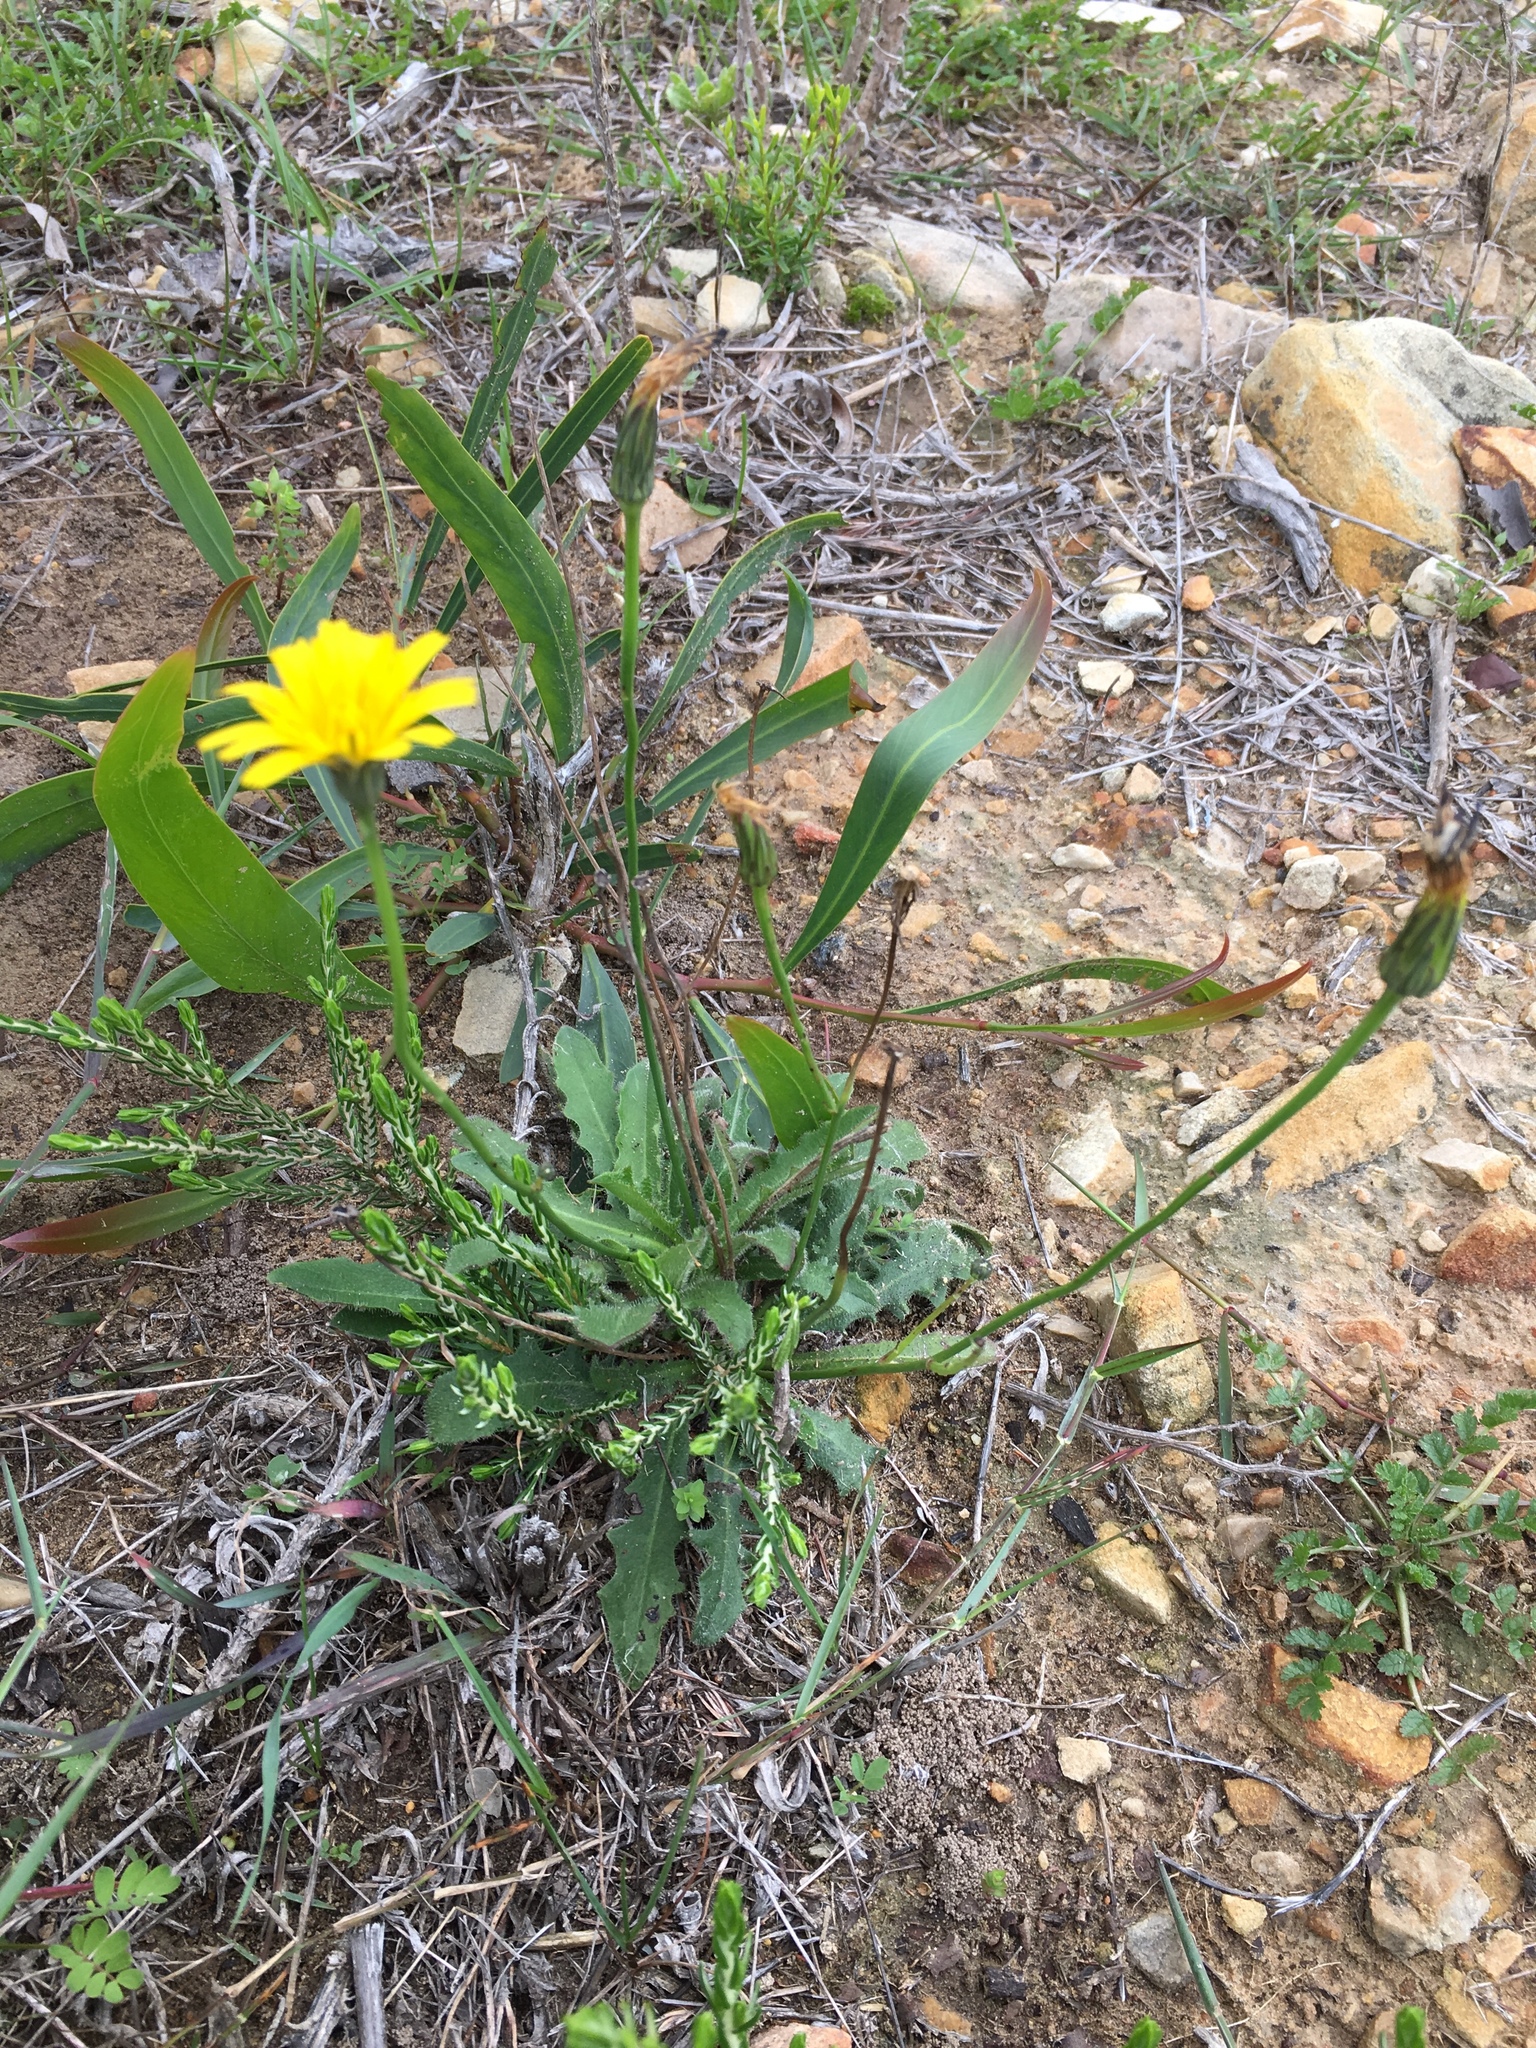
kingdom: Plantae
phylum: Tracheophyta
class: Magnoliopsida
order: Asterales
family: Asteraceae
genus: Hypochaeris
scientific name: Hypochaeris radicata
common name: Flatweed
